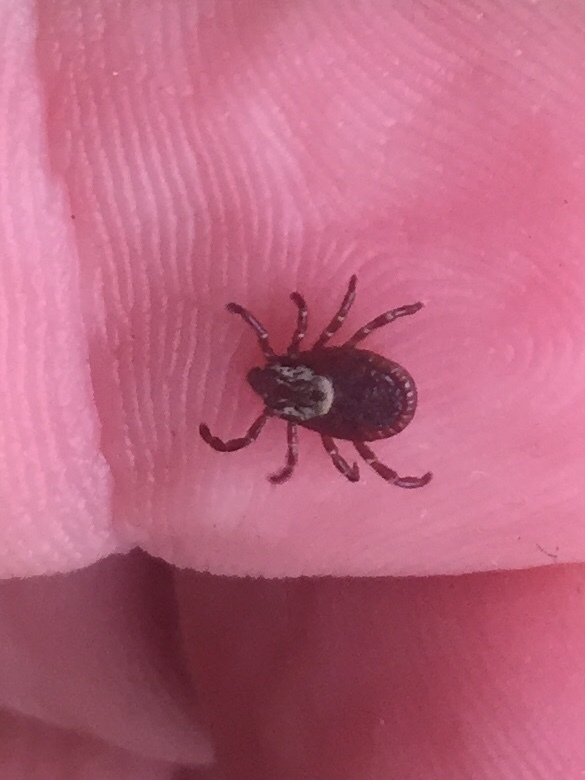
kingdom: Animalia
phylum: Arthropoda
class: Arachnida
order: Ixodida
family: Ixodidae
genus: Dermacentor
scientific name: Dermacentor variabilis
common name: American dog tick
